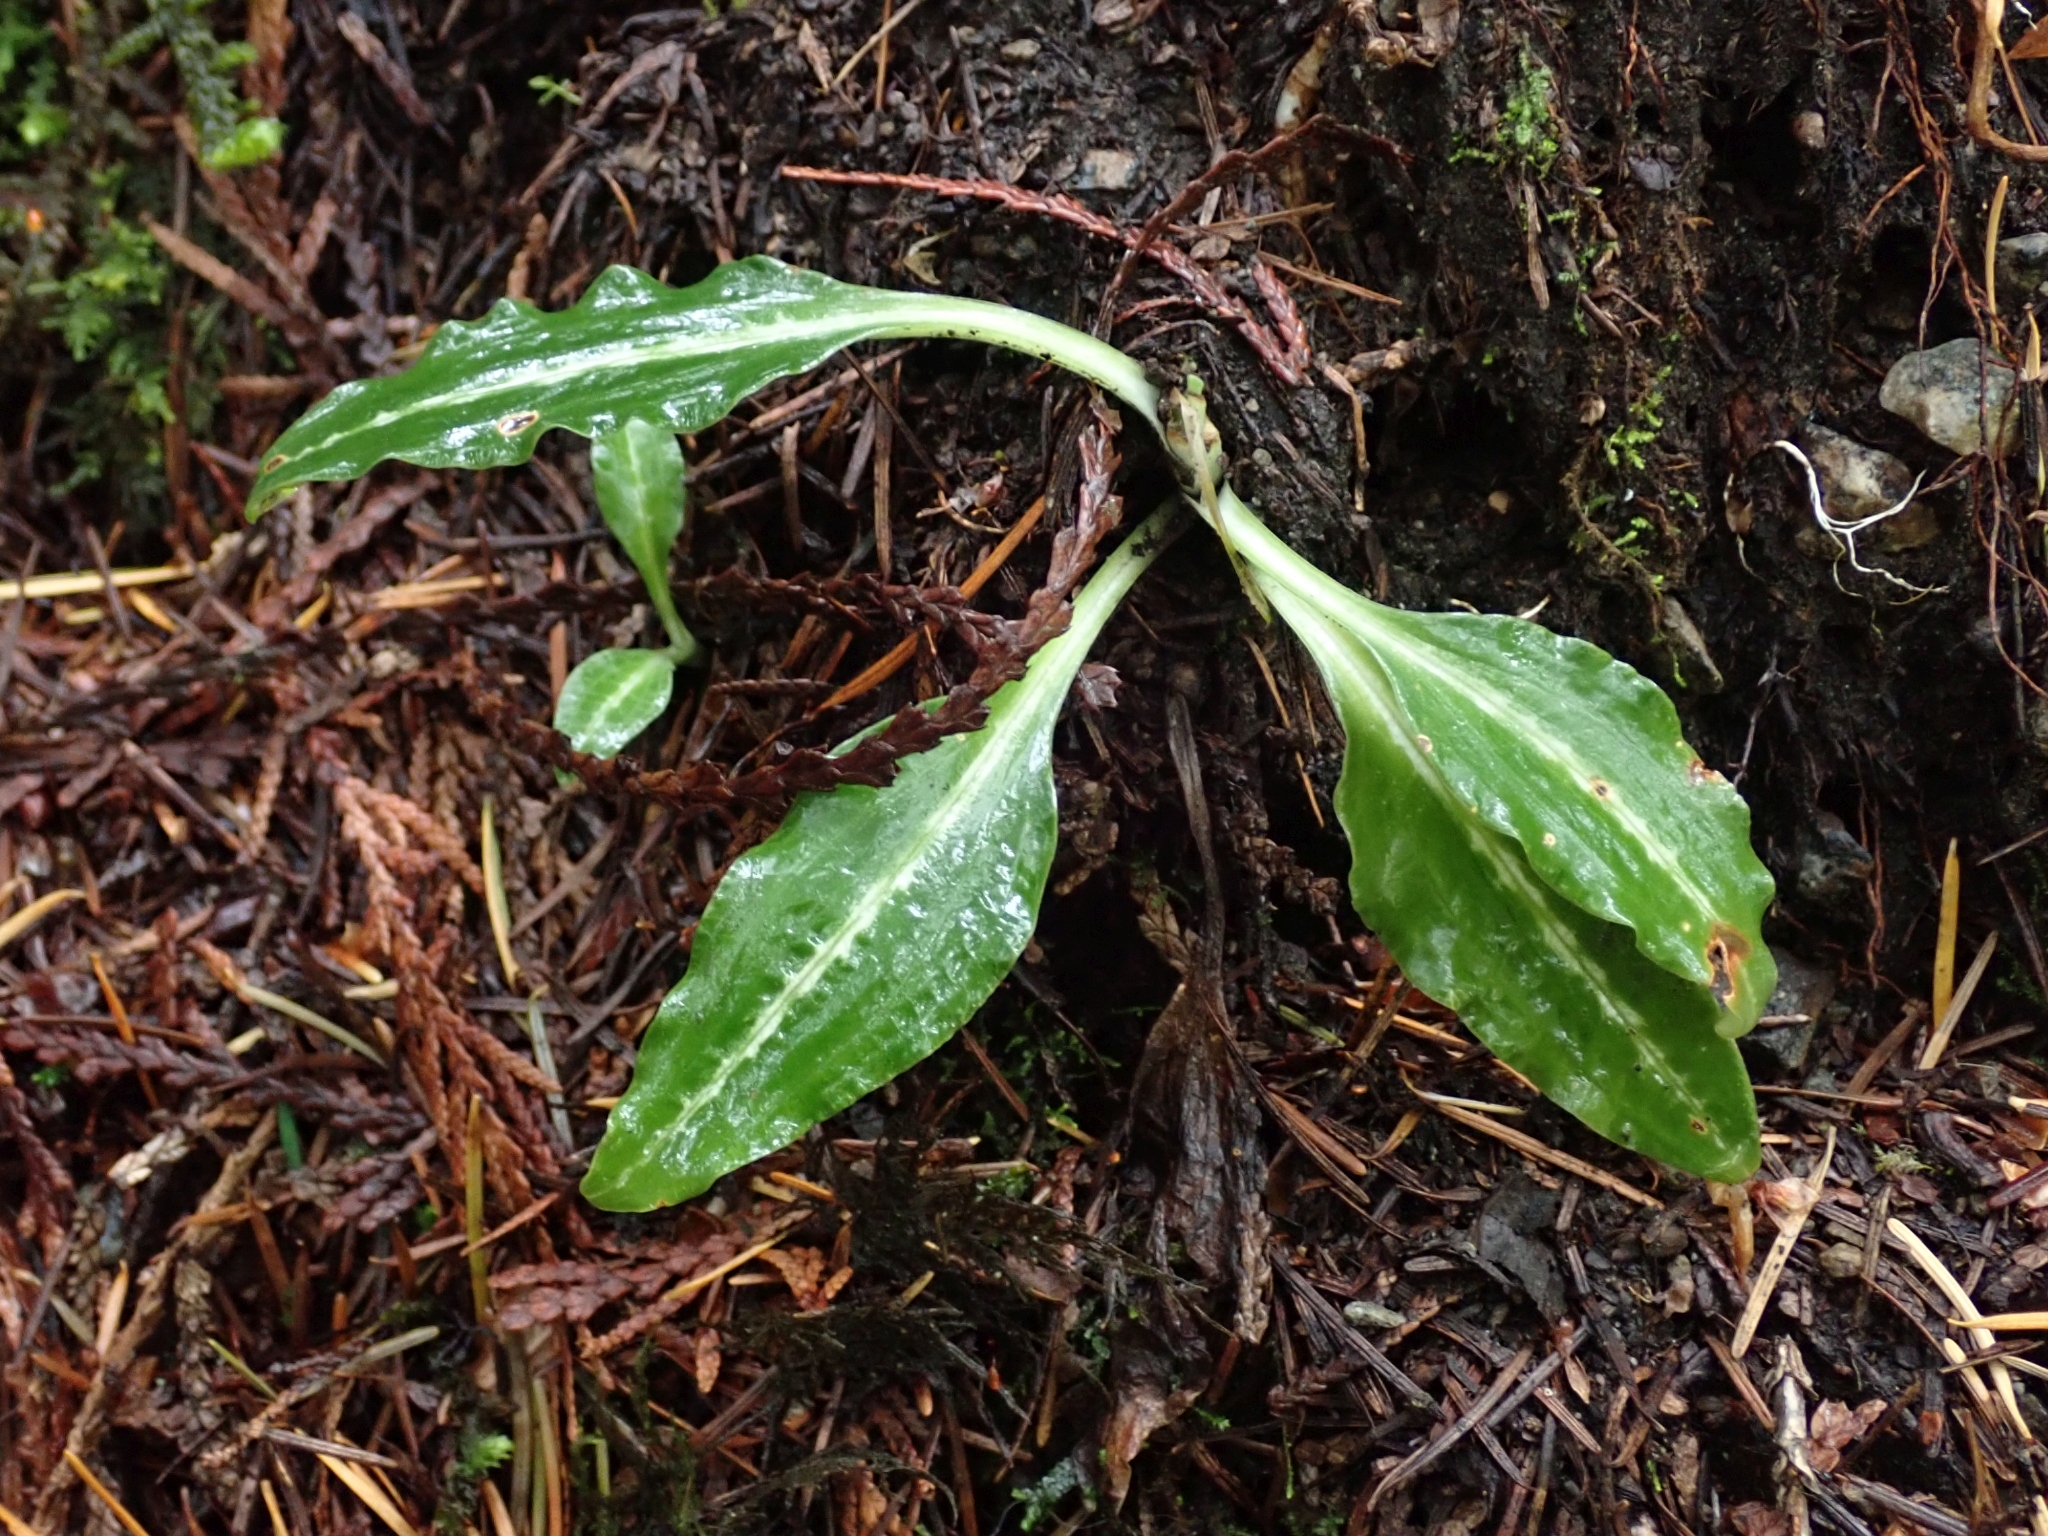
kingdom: Plantae
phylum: Tracheophyta
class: Liliopsida
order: Asparagales
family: Orchidaceae
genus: Goodyera
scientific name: Goodyera oblongifolia
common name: Giant rattlesnake-plantain
